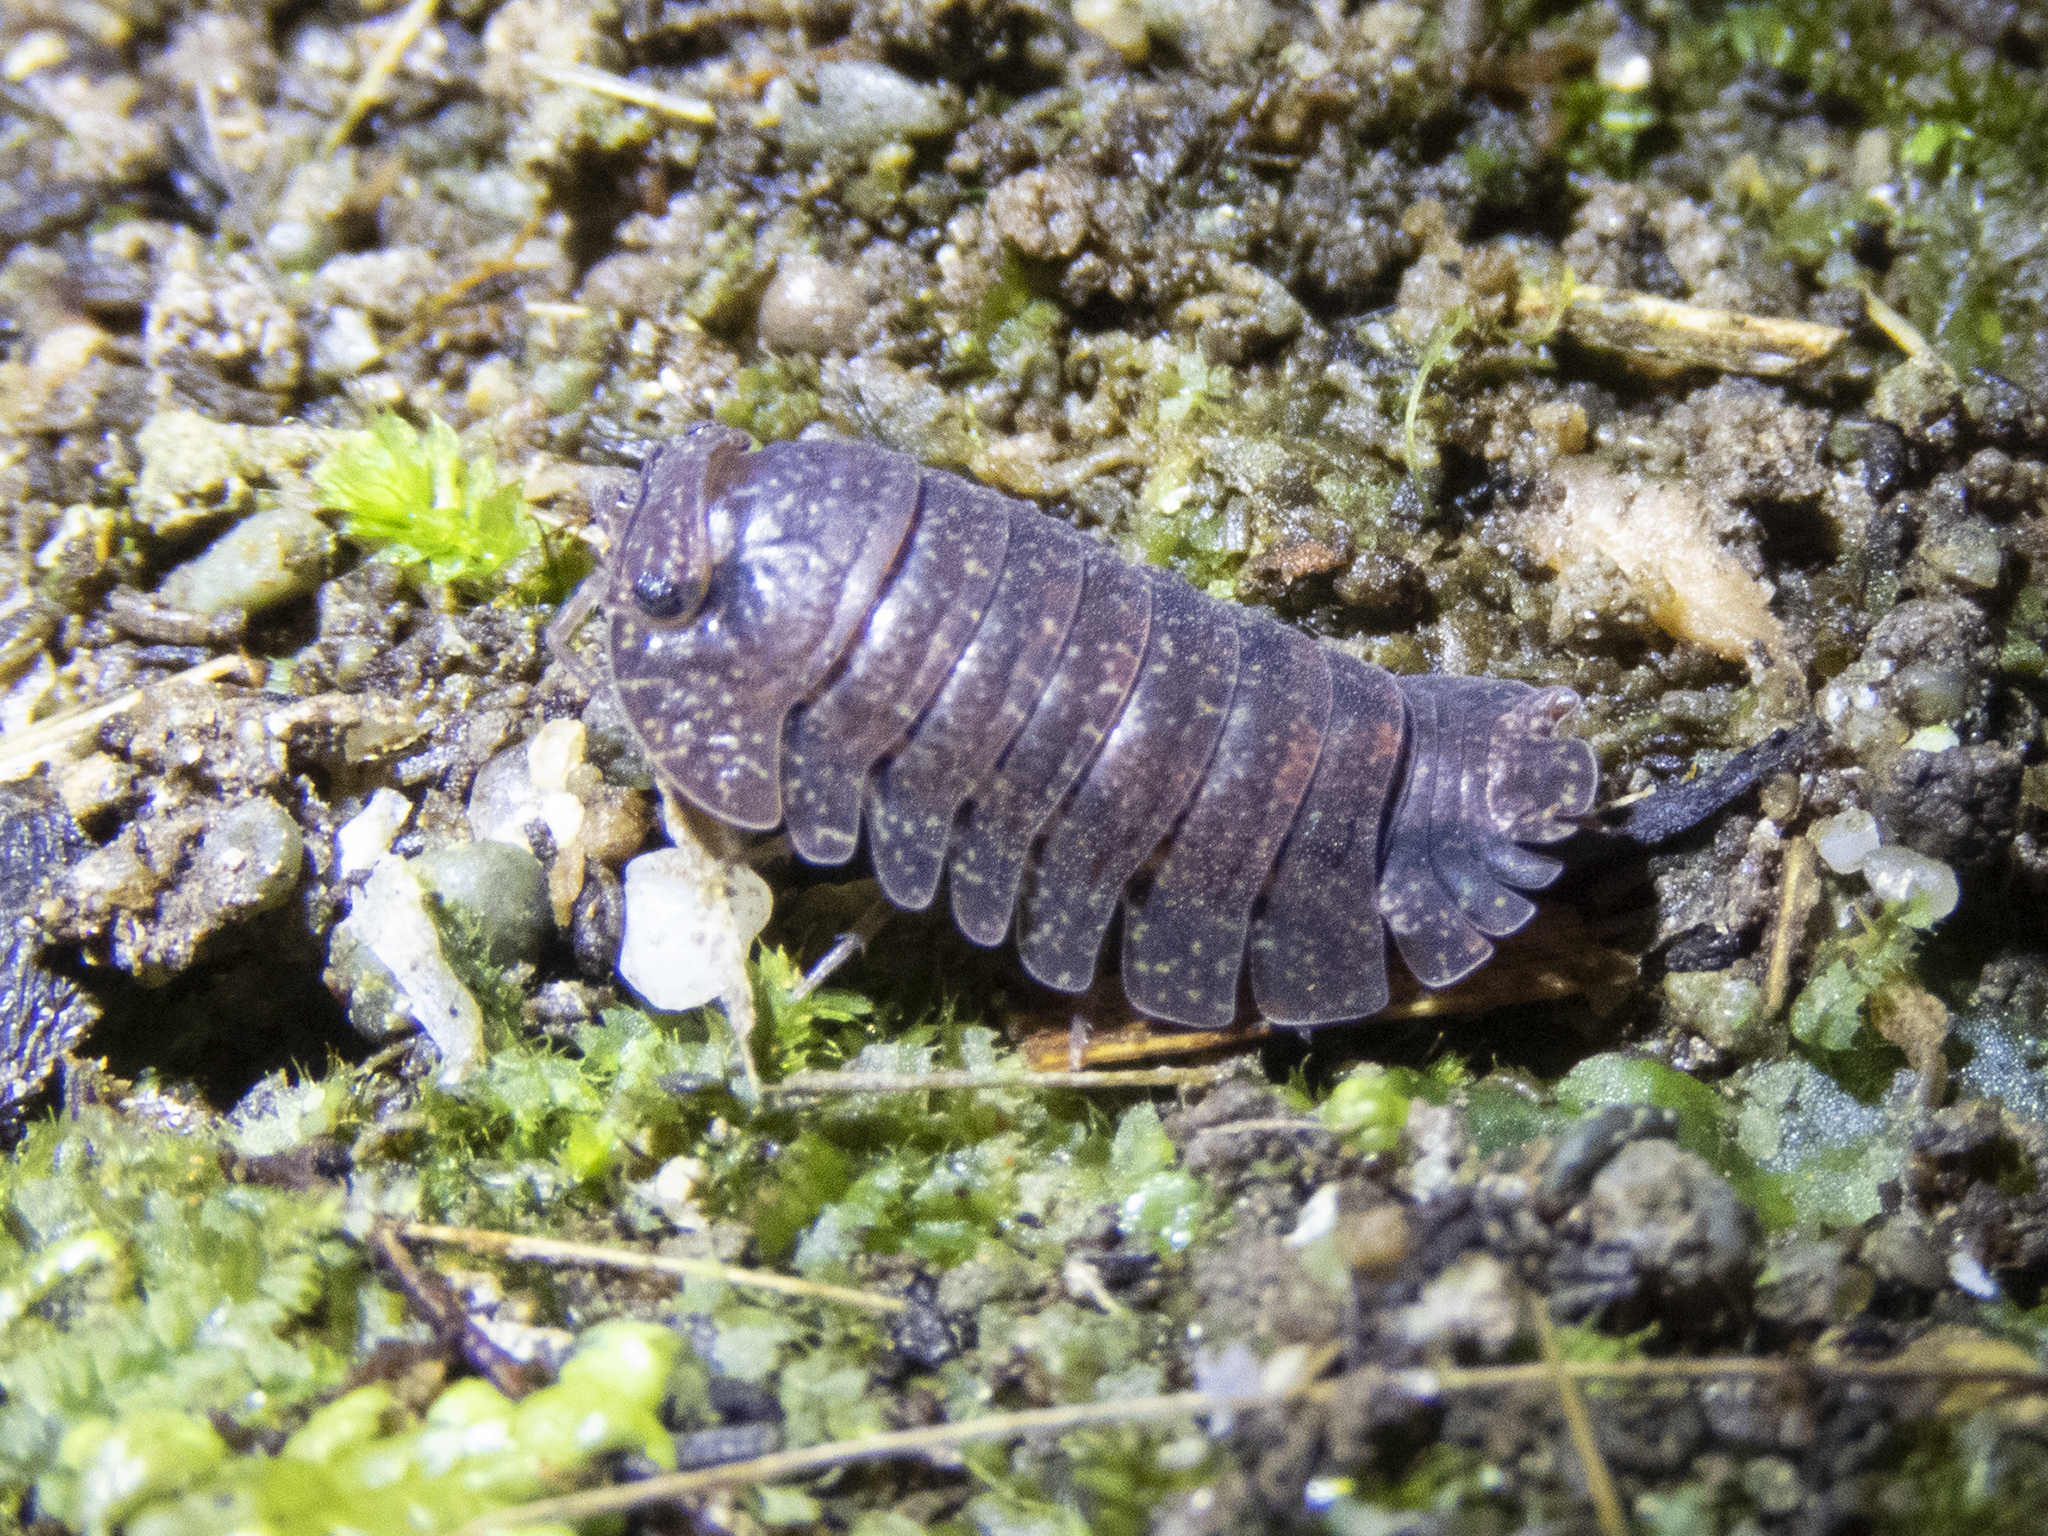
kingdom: Animalia
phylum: Arthropoda
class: Malacostraca
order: Isopoda
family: Armadillidae
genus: Cubaris
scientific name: Cubaris tarangensis
